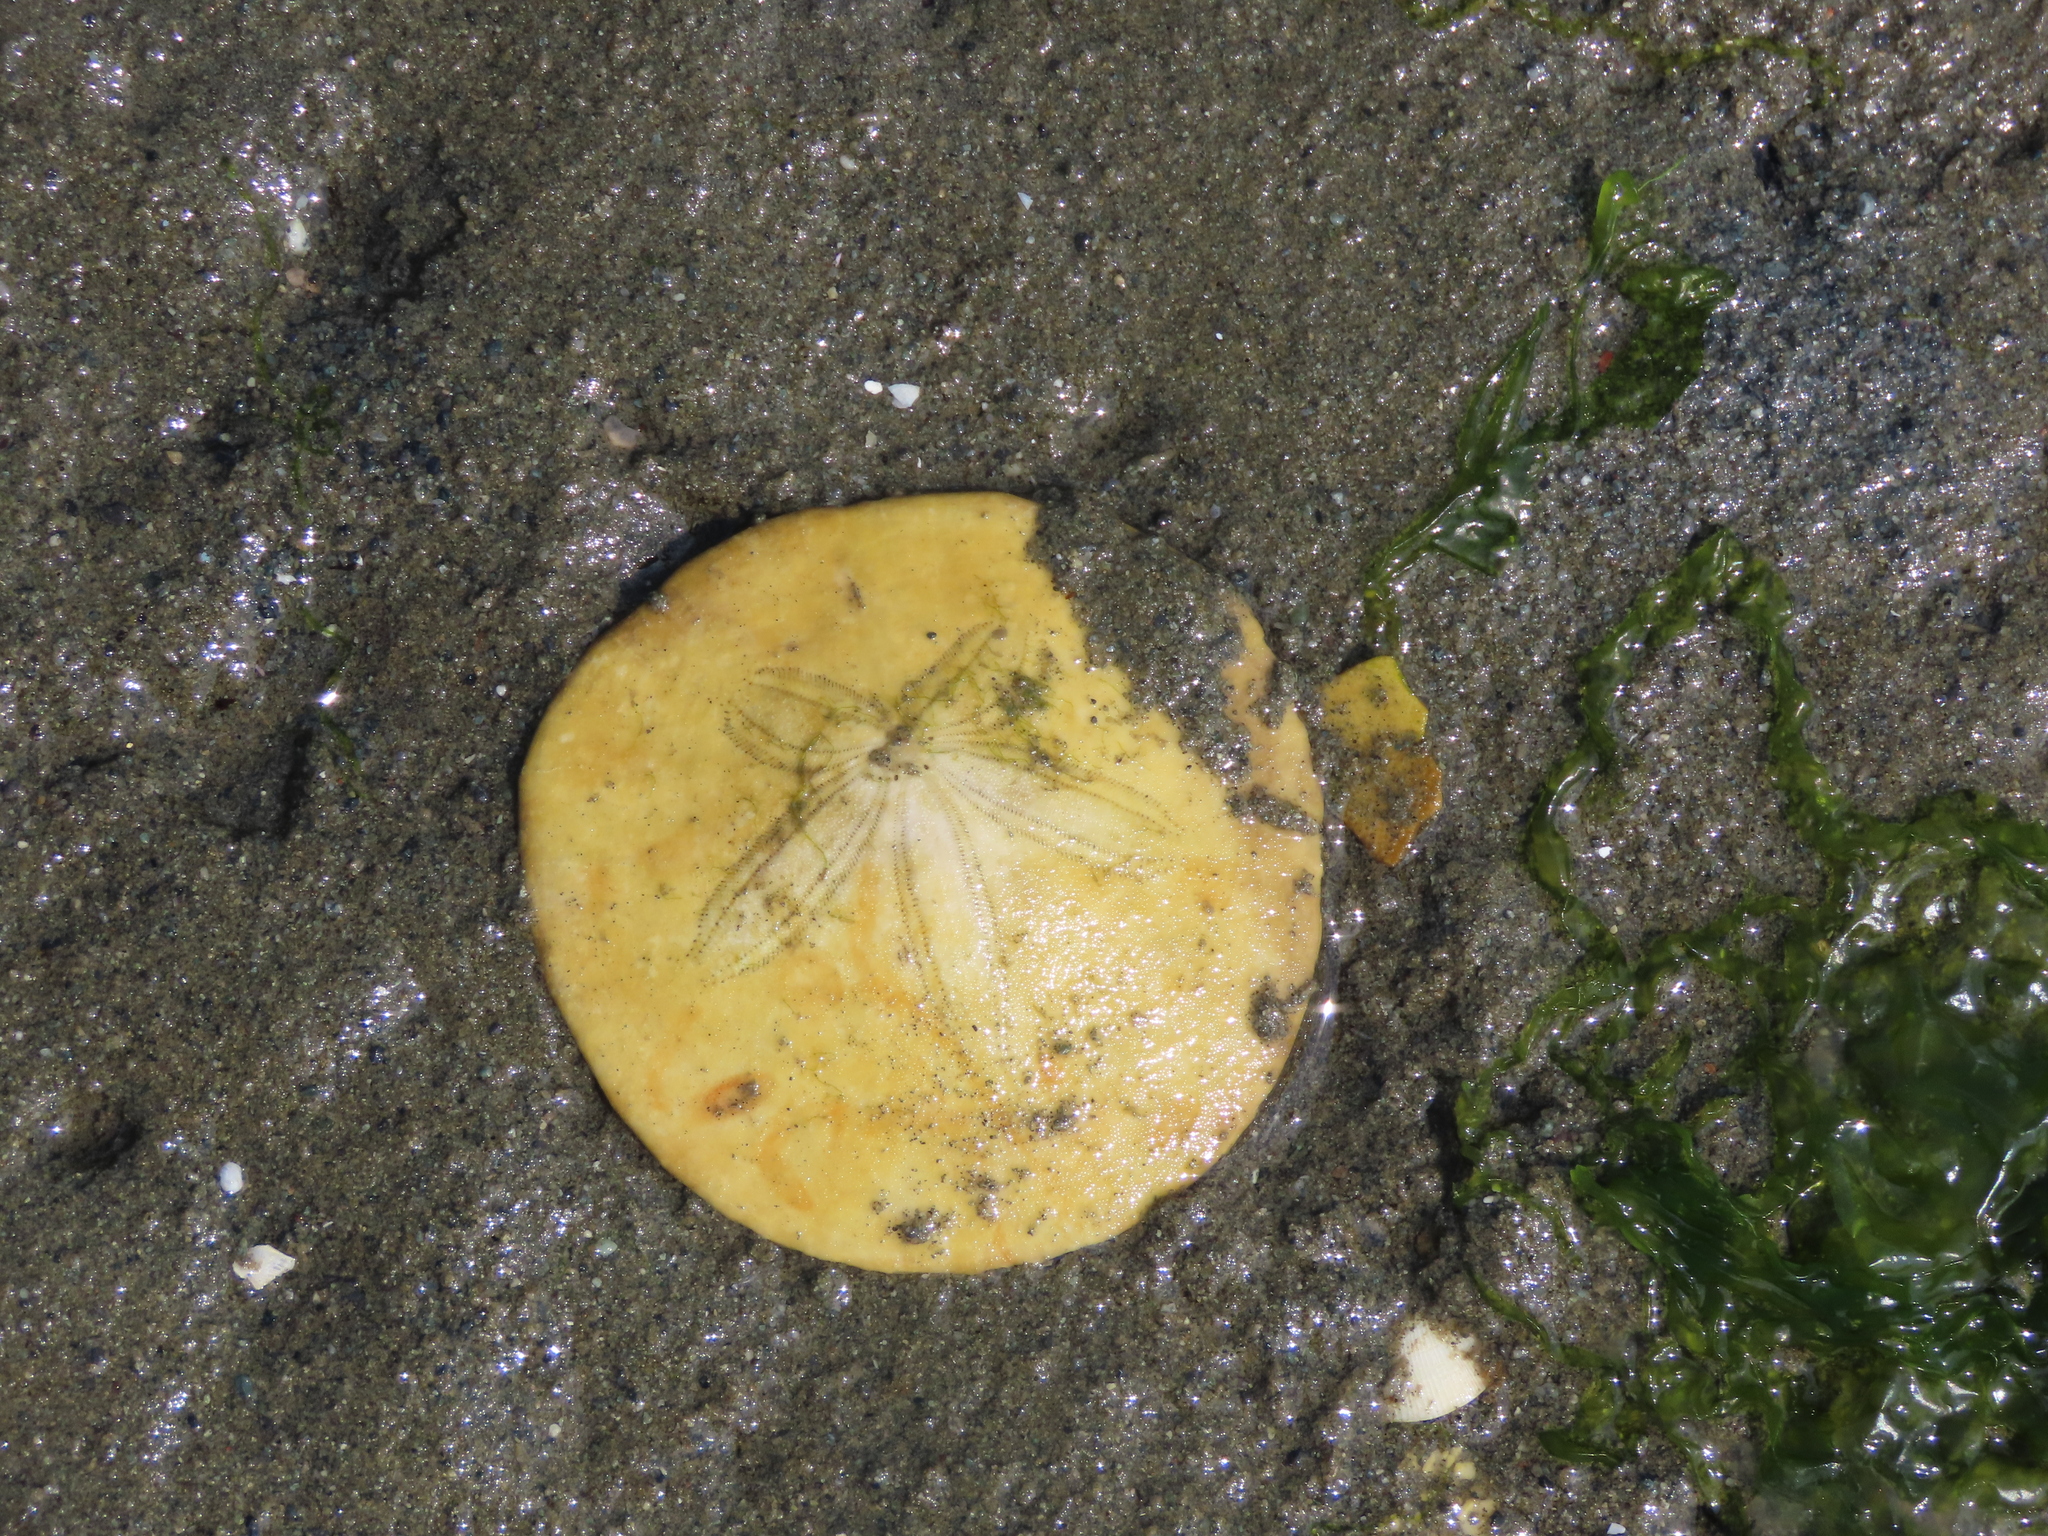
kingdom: Animalia
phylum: Echinodermata
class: Echinoidea
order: Echinolampadacea
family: Dendrasteridae
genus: Dendraster
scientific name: Dendraster excentricus
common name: Eccentric sand dollar sea urchin
